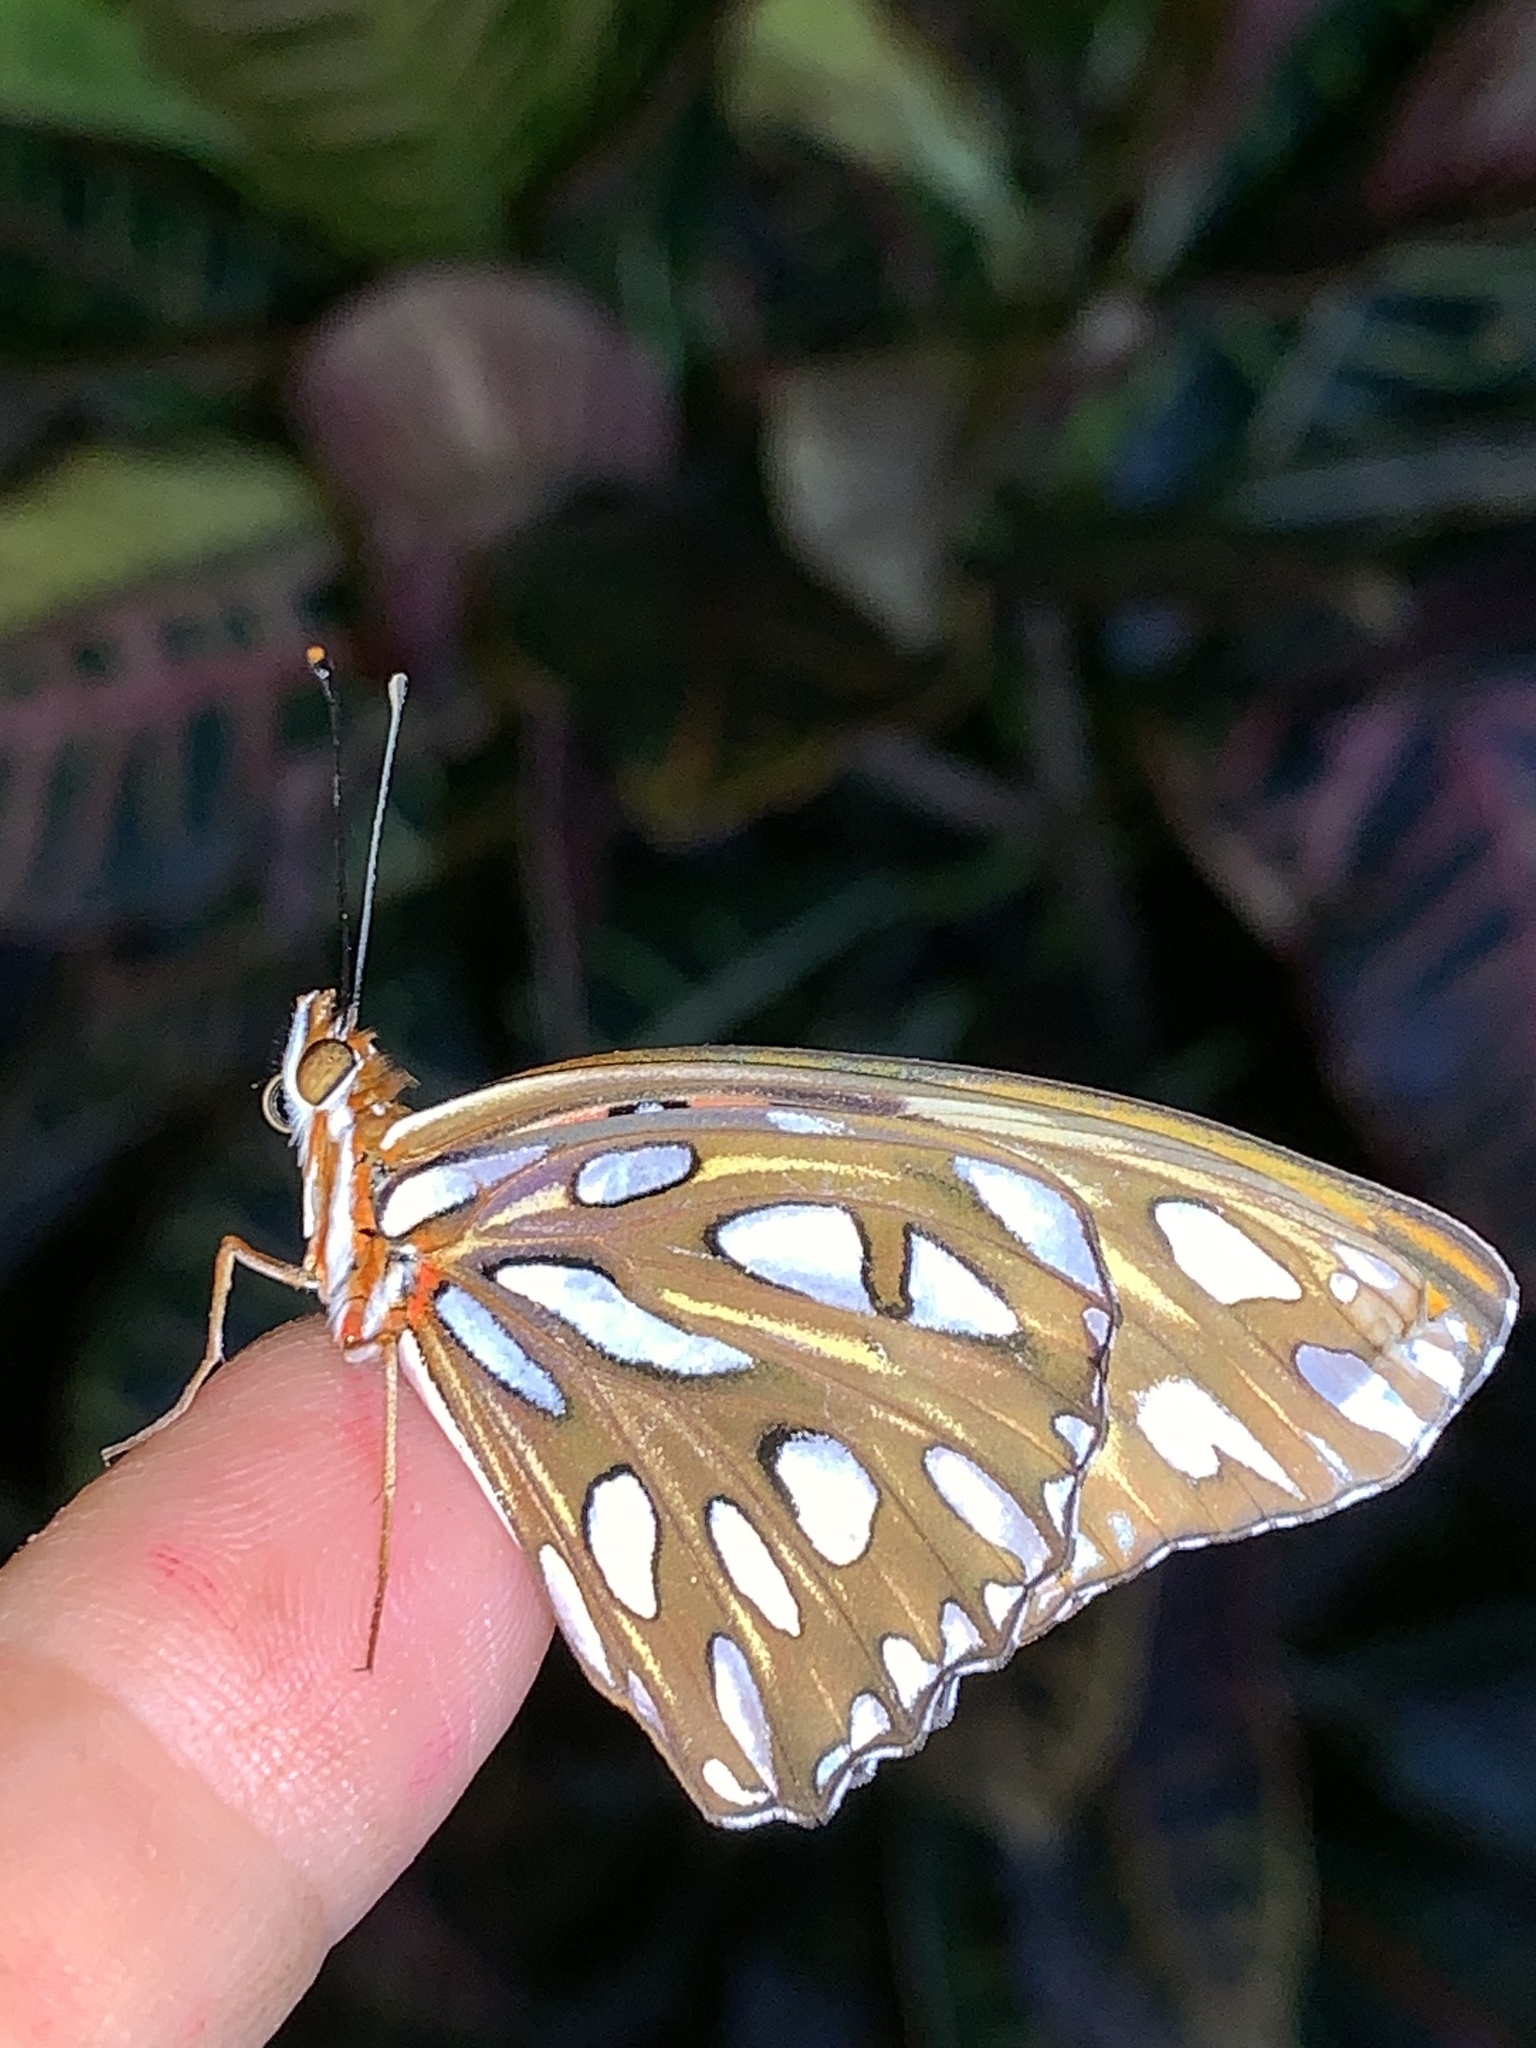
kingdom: Animalia
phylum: Arthropoda
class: Insecta
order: Lepidoptera
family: Nymphalidae
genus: Dione
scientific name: Dione vanillae
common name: Gulf fritillary
